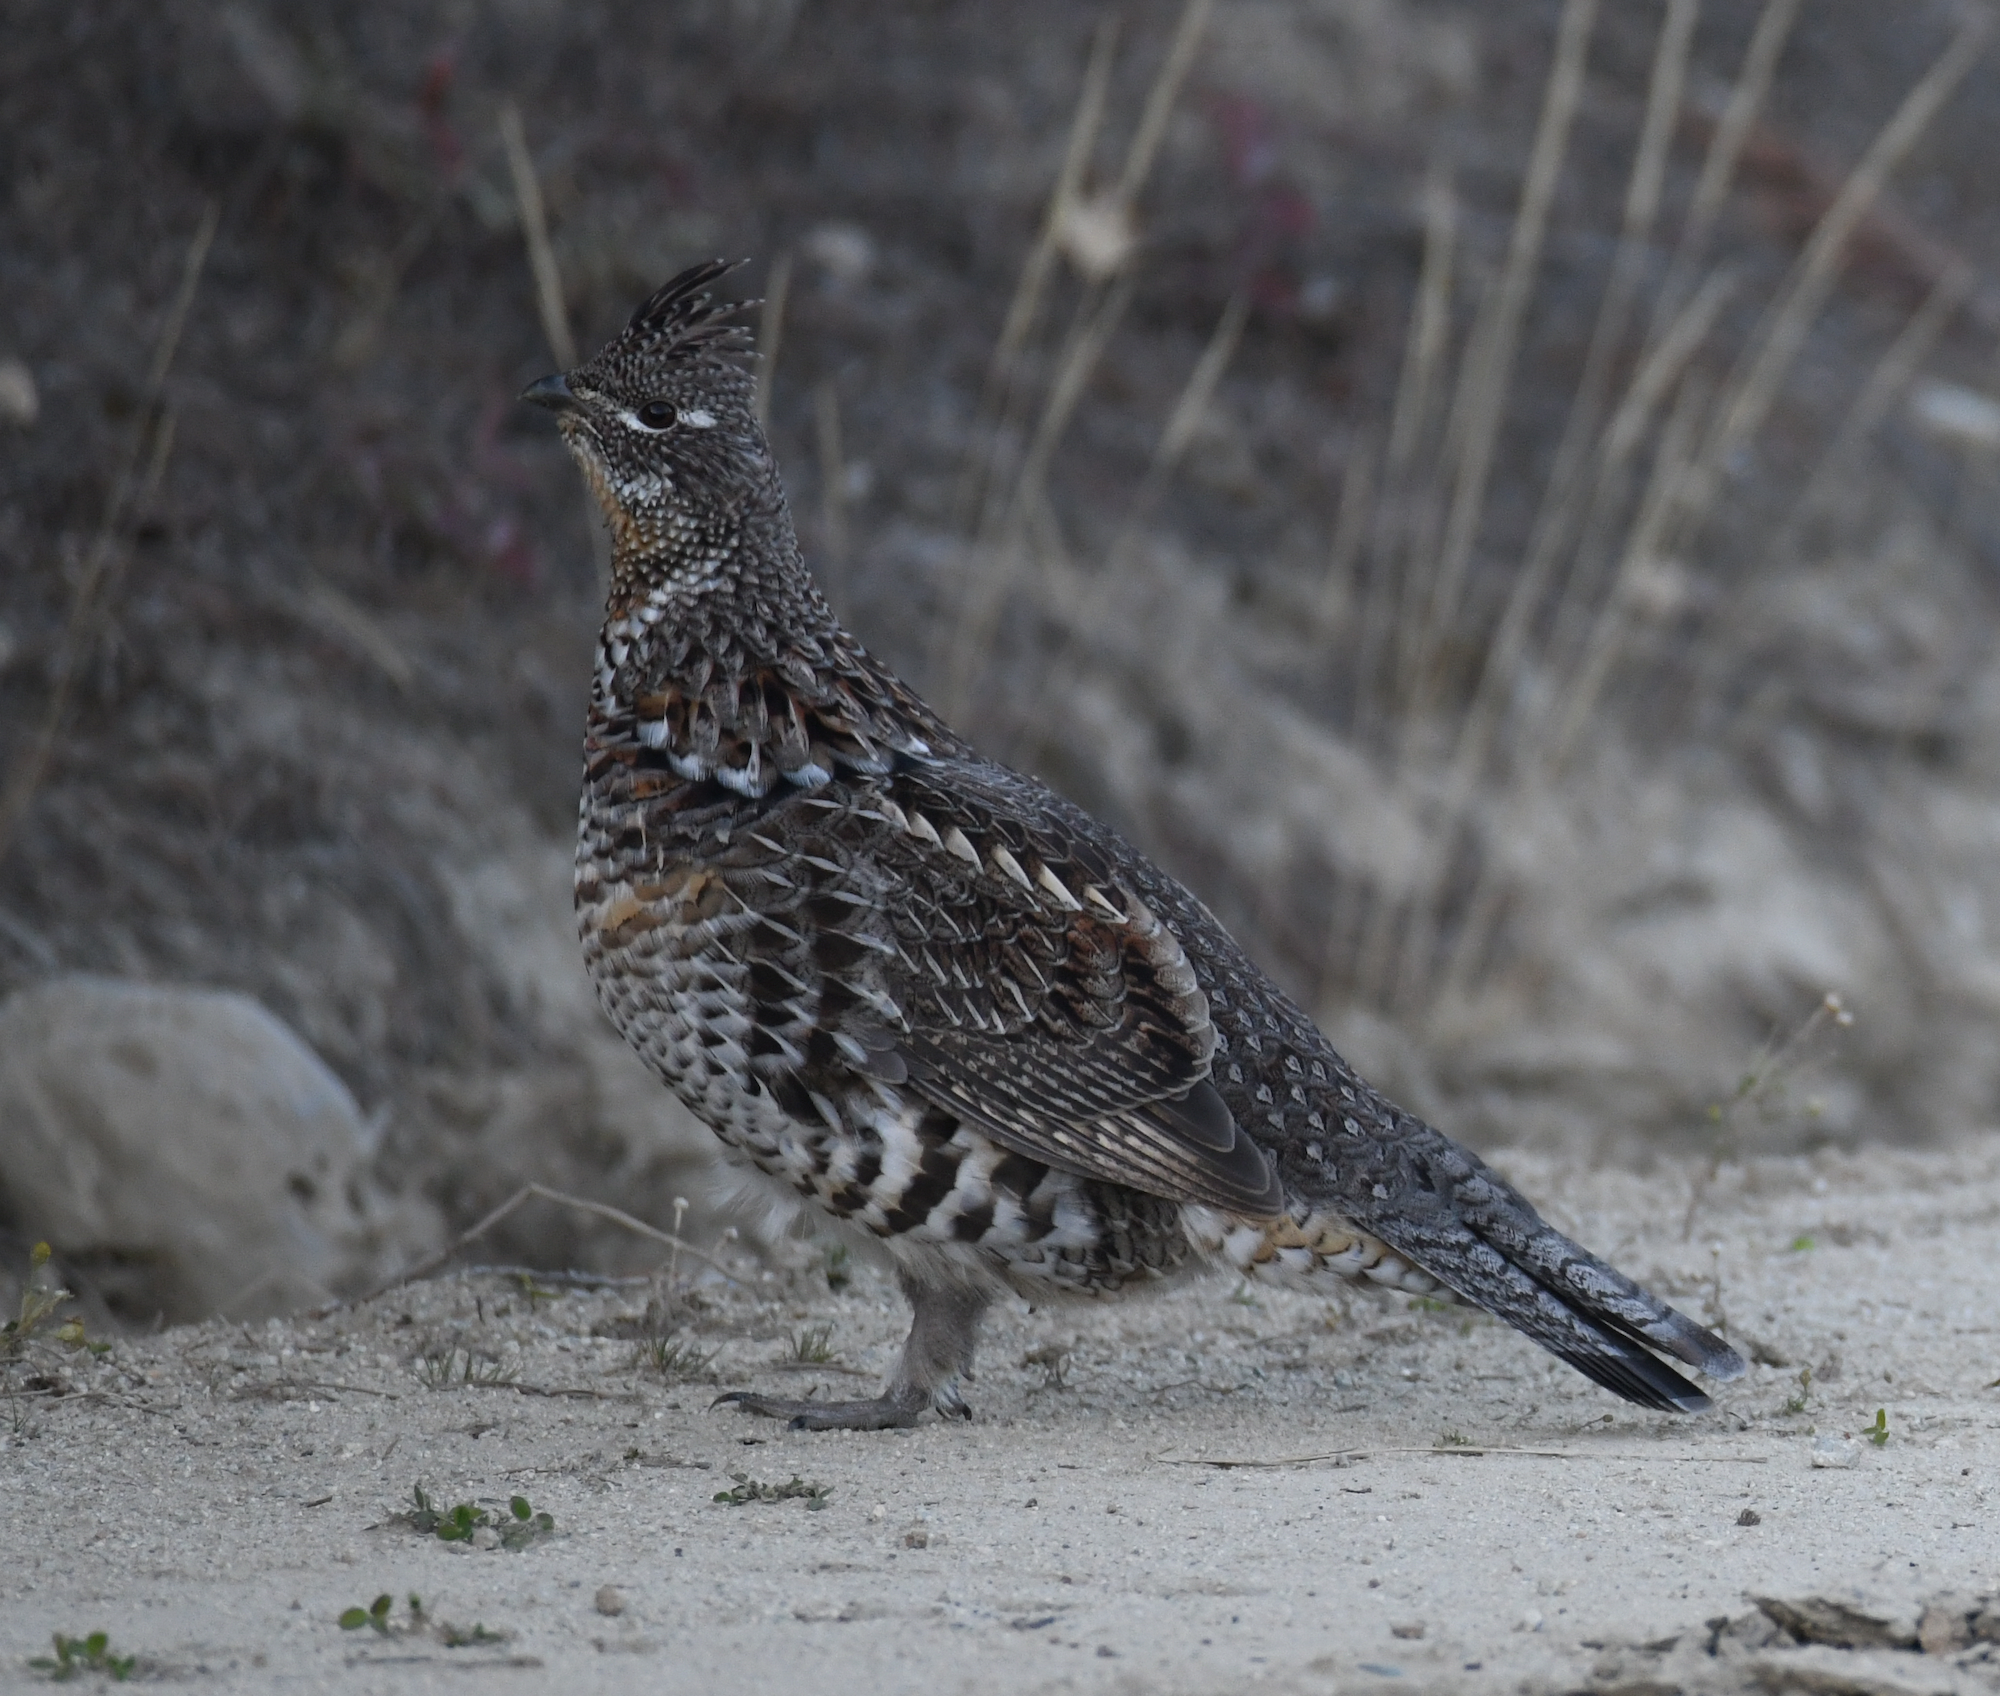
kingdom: Animalia
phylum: Chordata
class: Aves
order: Galliformes
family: Phasianidae
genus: Bonasa
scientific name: Bonasa umbellus
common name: Ruffed grouse
